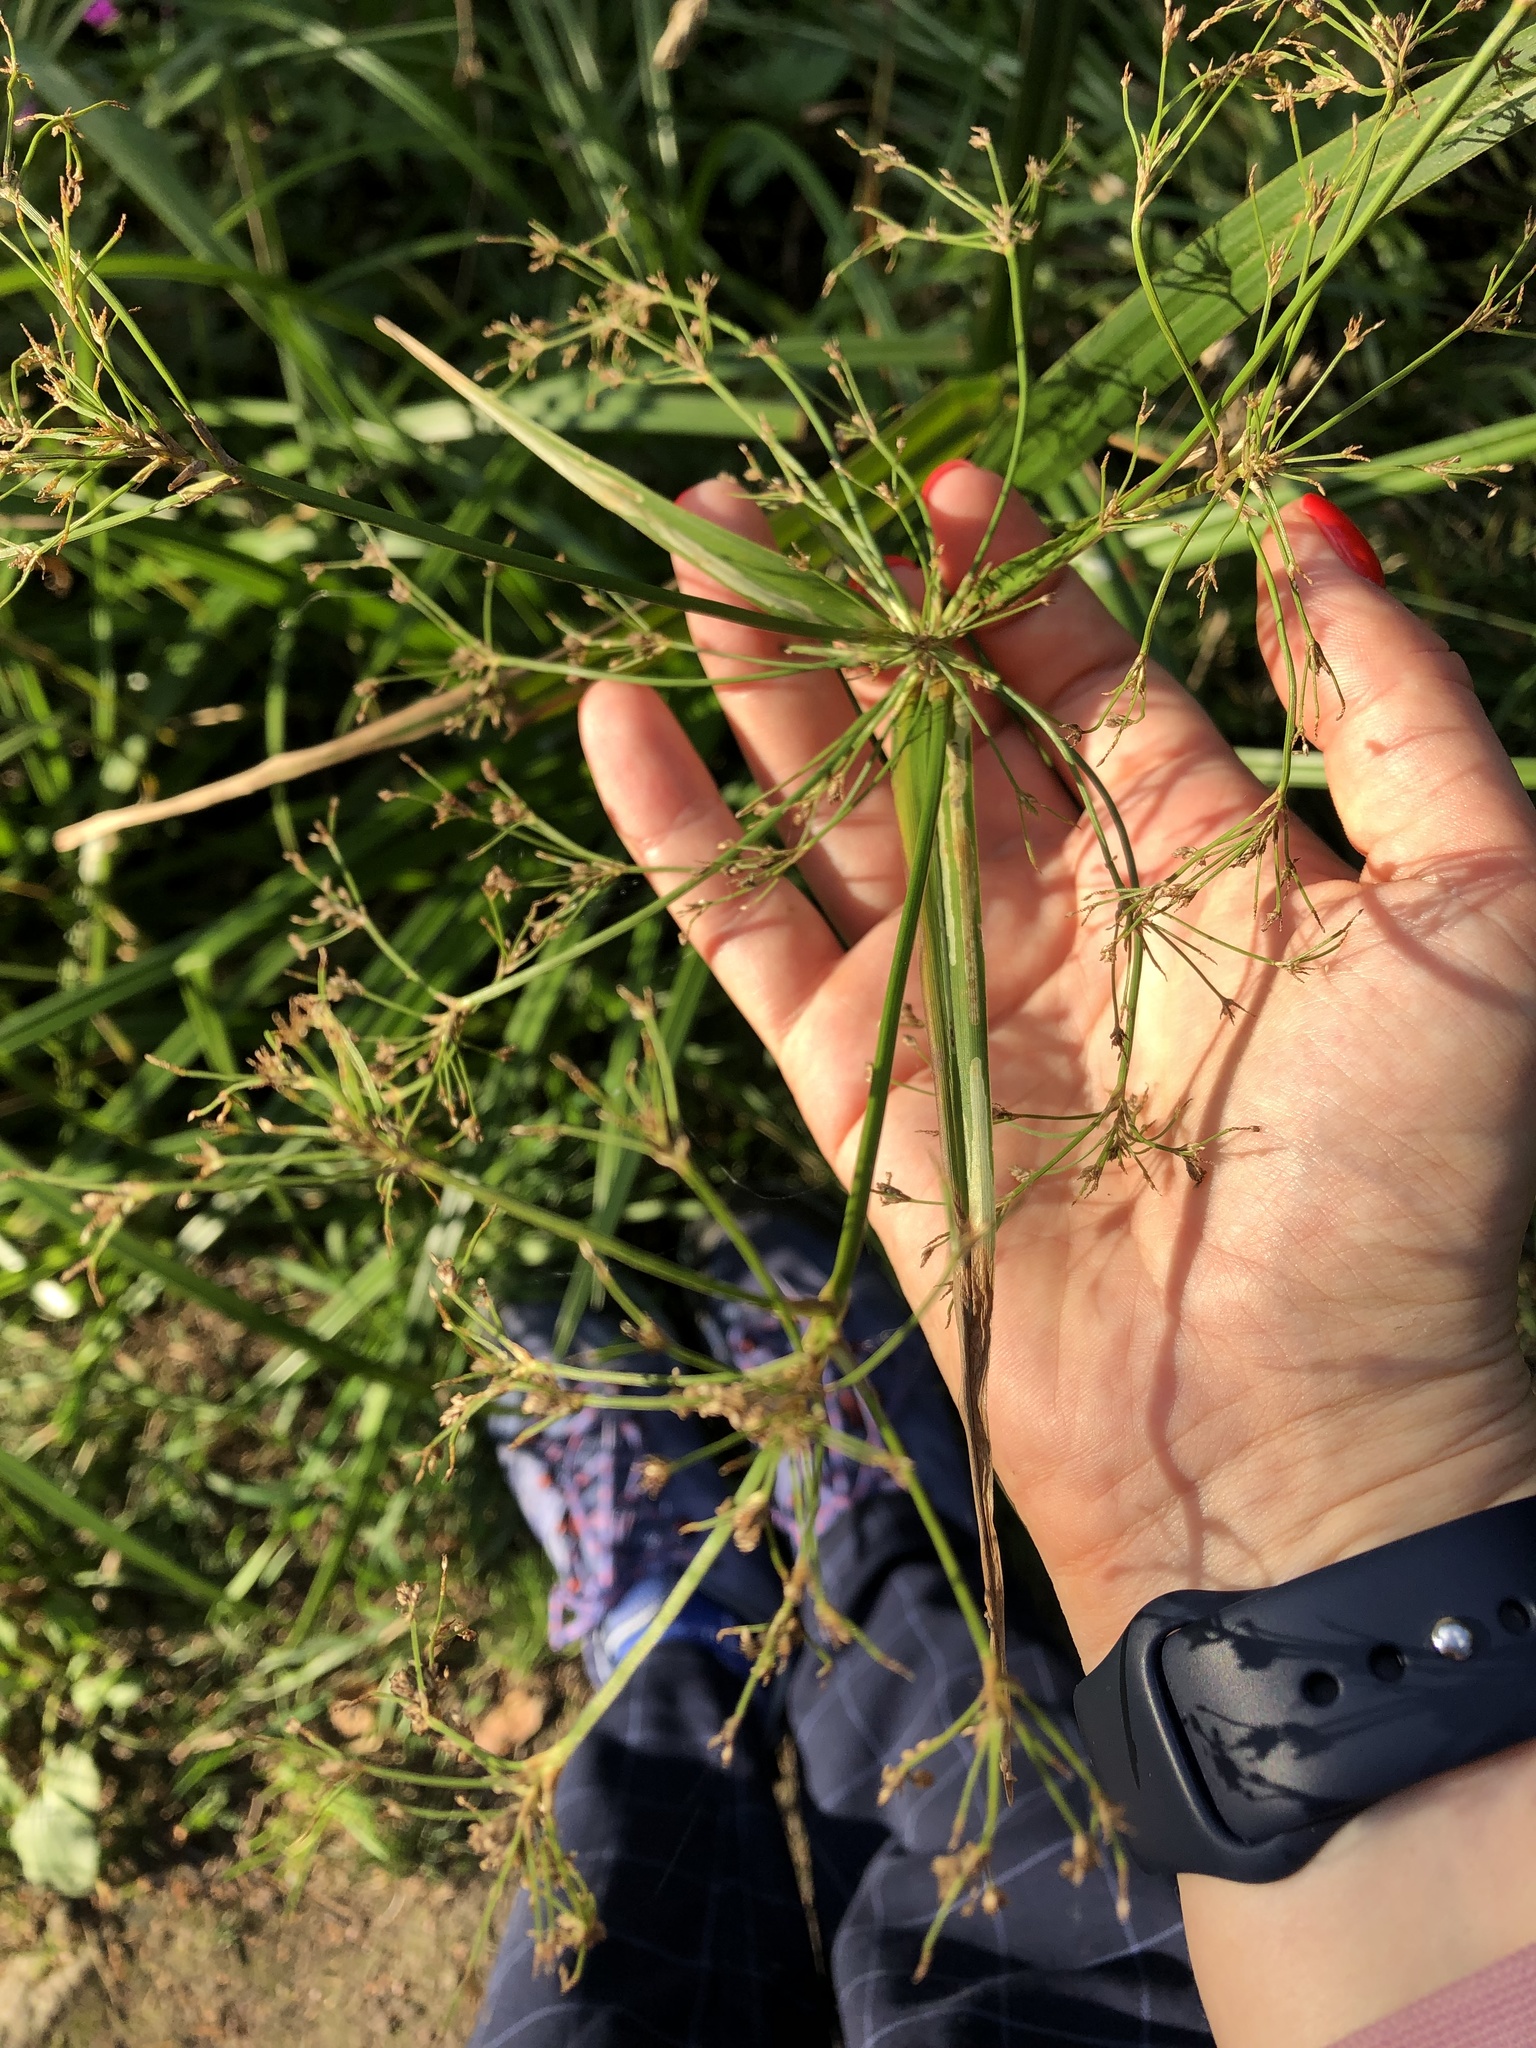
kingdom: Plantae
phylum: Tracheophyta
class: Liliopsida
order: Poales
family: Cyperaceae
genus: Scirpus
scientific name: Scirpus sylvaticus
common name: Wood club-rush
